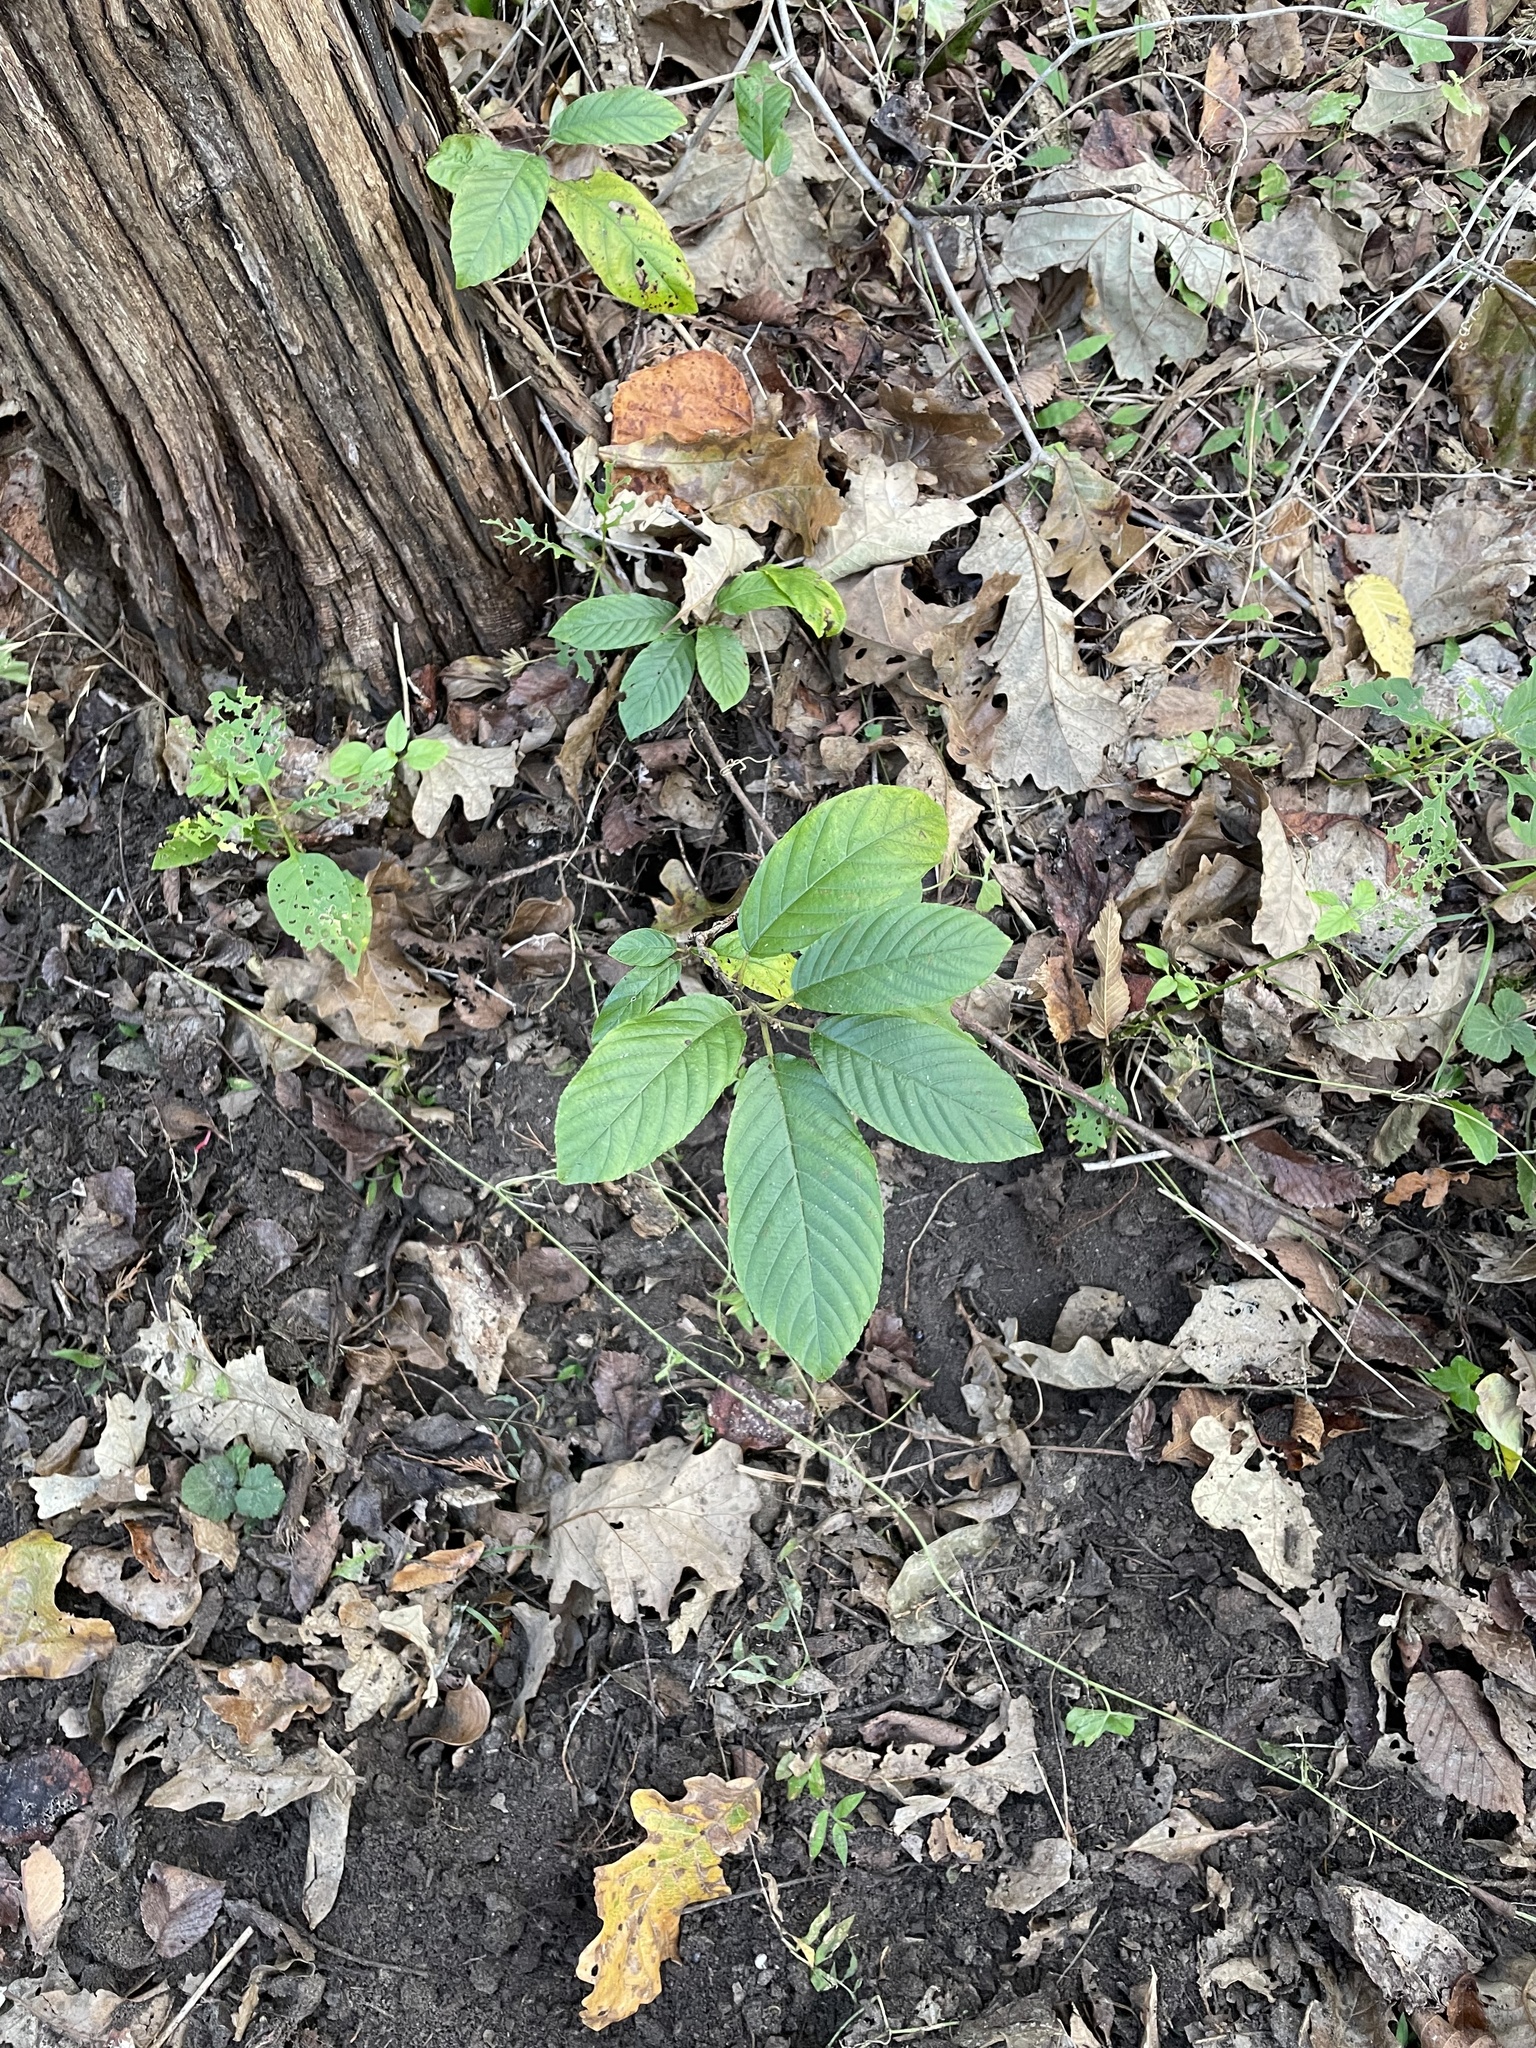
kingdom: Plantae
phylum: Tracheophyta
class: Magnoliopsida
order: Rosales
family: Rhamnaceae
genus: Frangula
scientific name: Frangula caroliniana
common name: Carolina buckthorn
